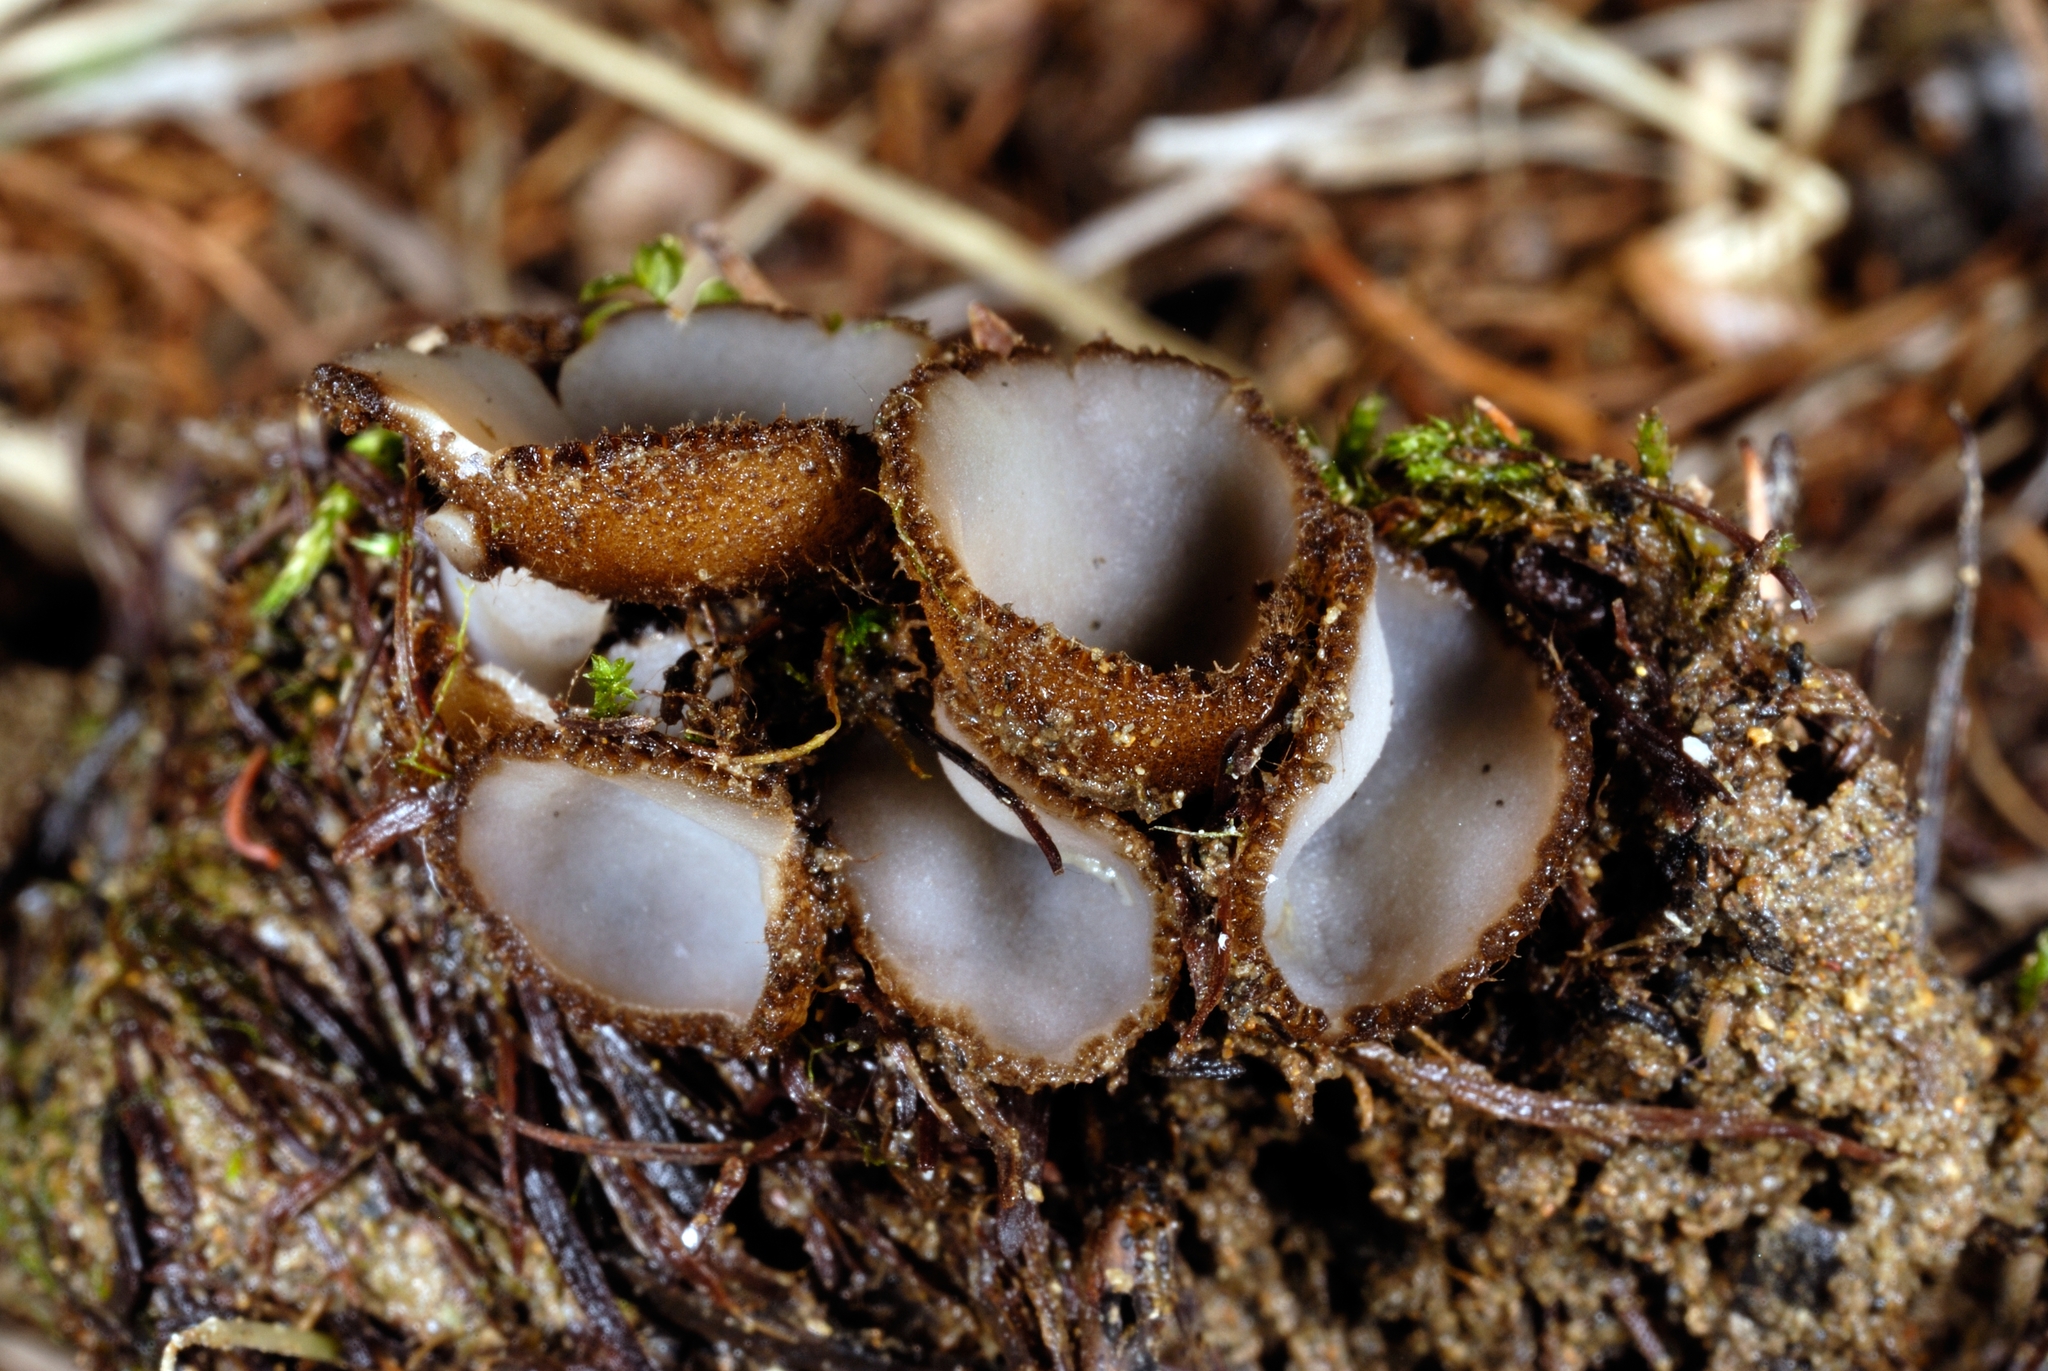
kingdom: Fungi
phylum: Ascomycota
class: Pezizomycetes
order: Pezizales
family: Pyronemataceae
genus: Geopora
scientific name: Geopora tenuis
